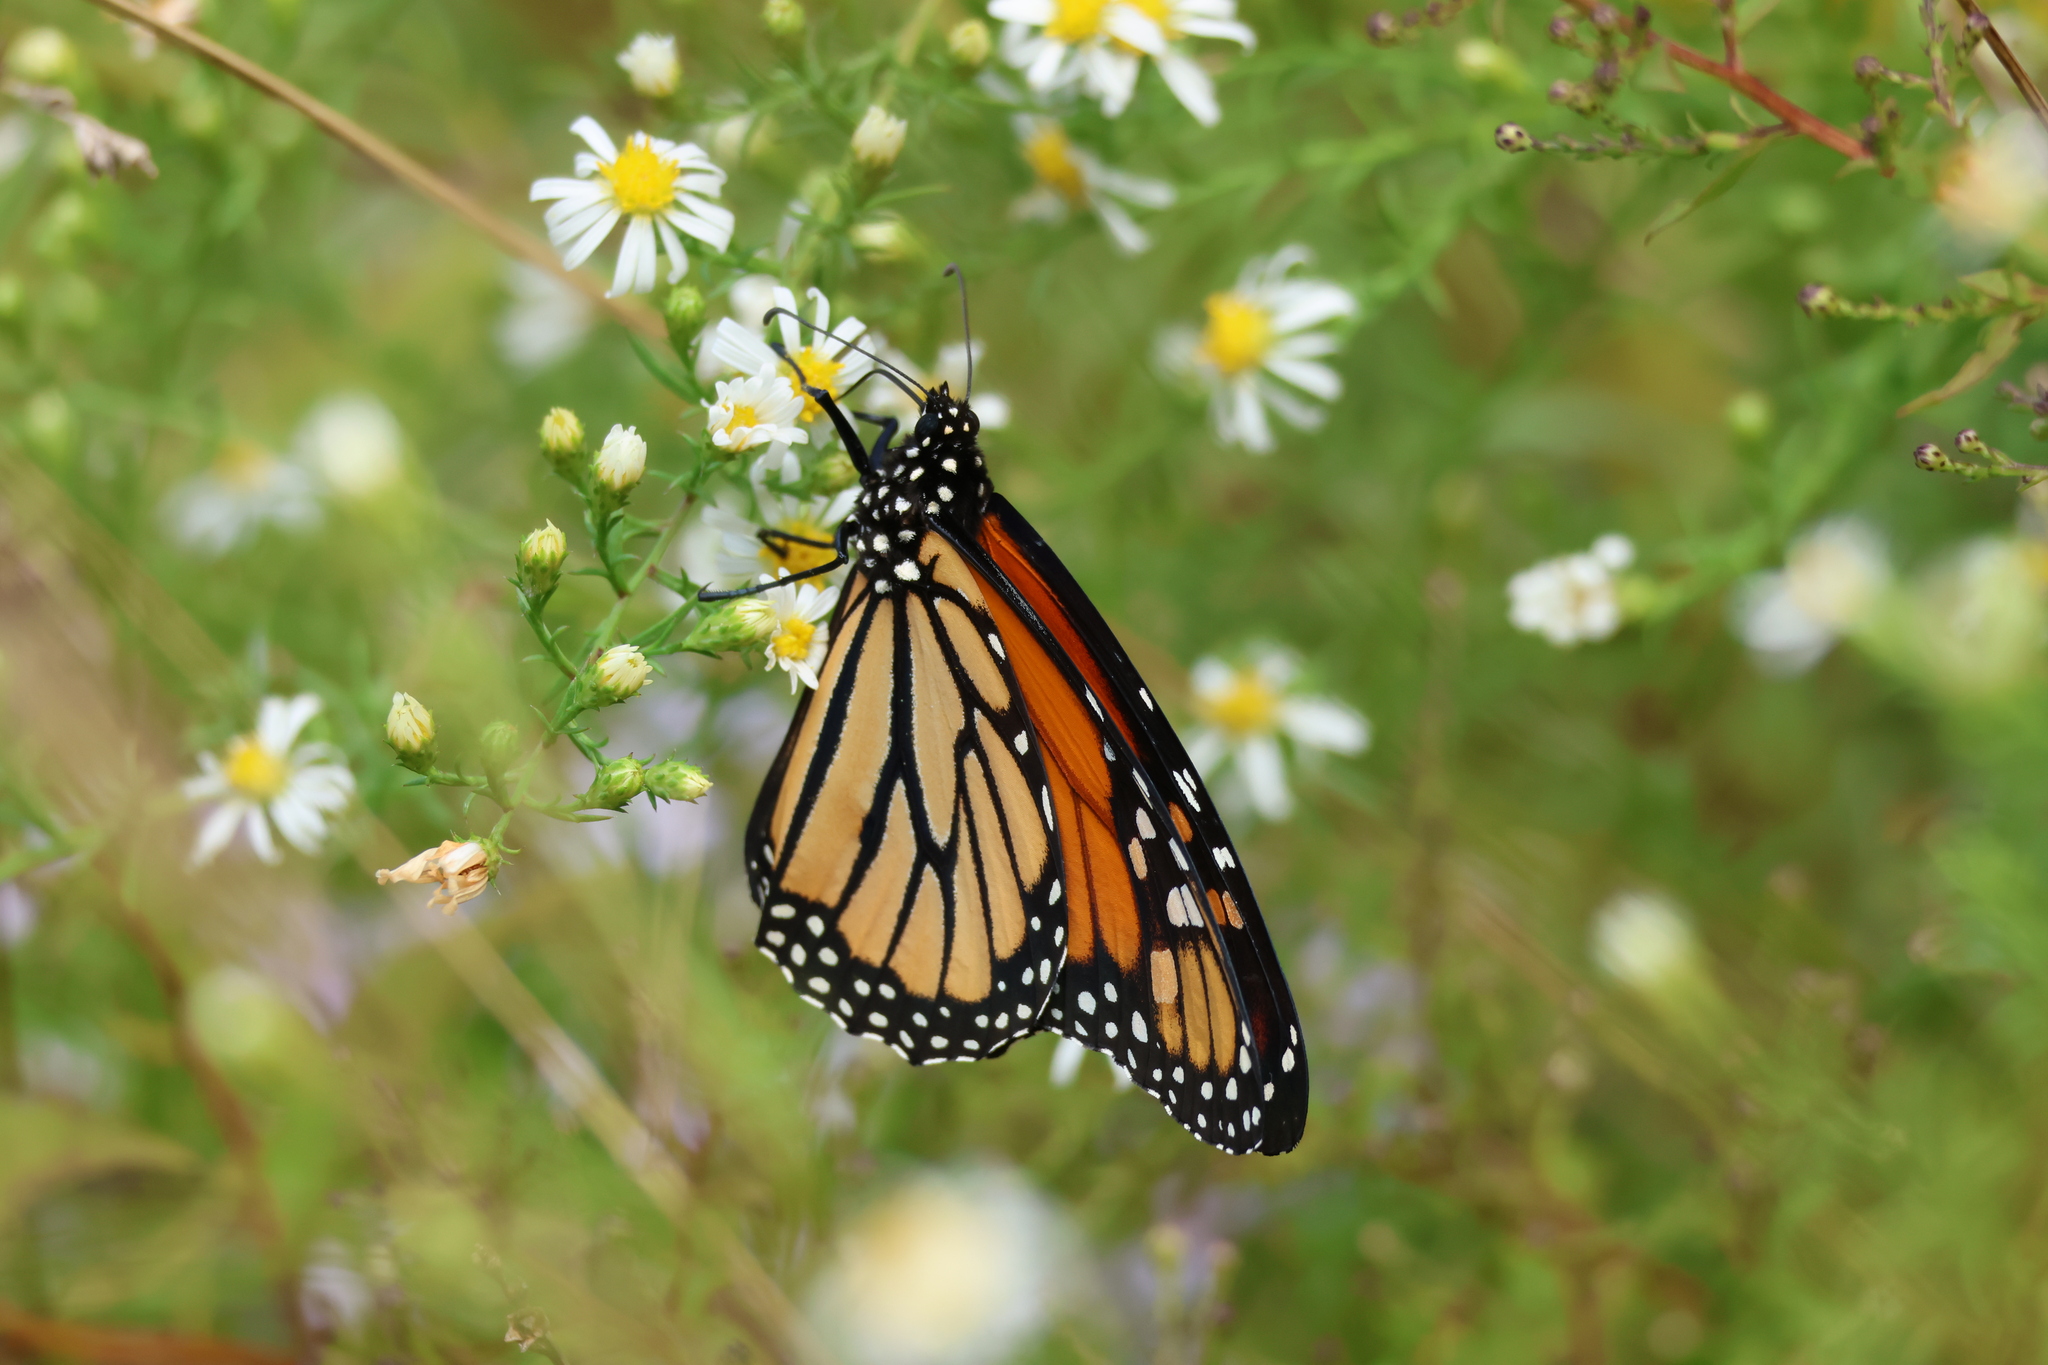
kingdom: Animalia
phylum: Arthropoda
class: Insecta
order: Lepidoptera
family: Nymphalidae
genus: Danaus
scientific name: Danaus plexippus
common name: Monarch
